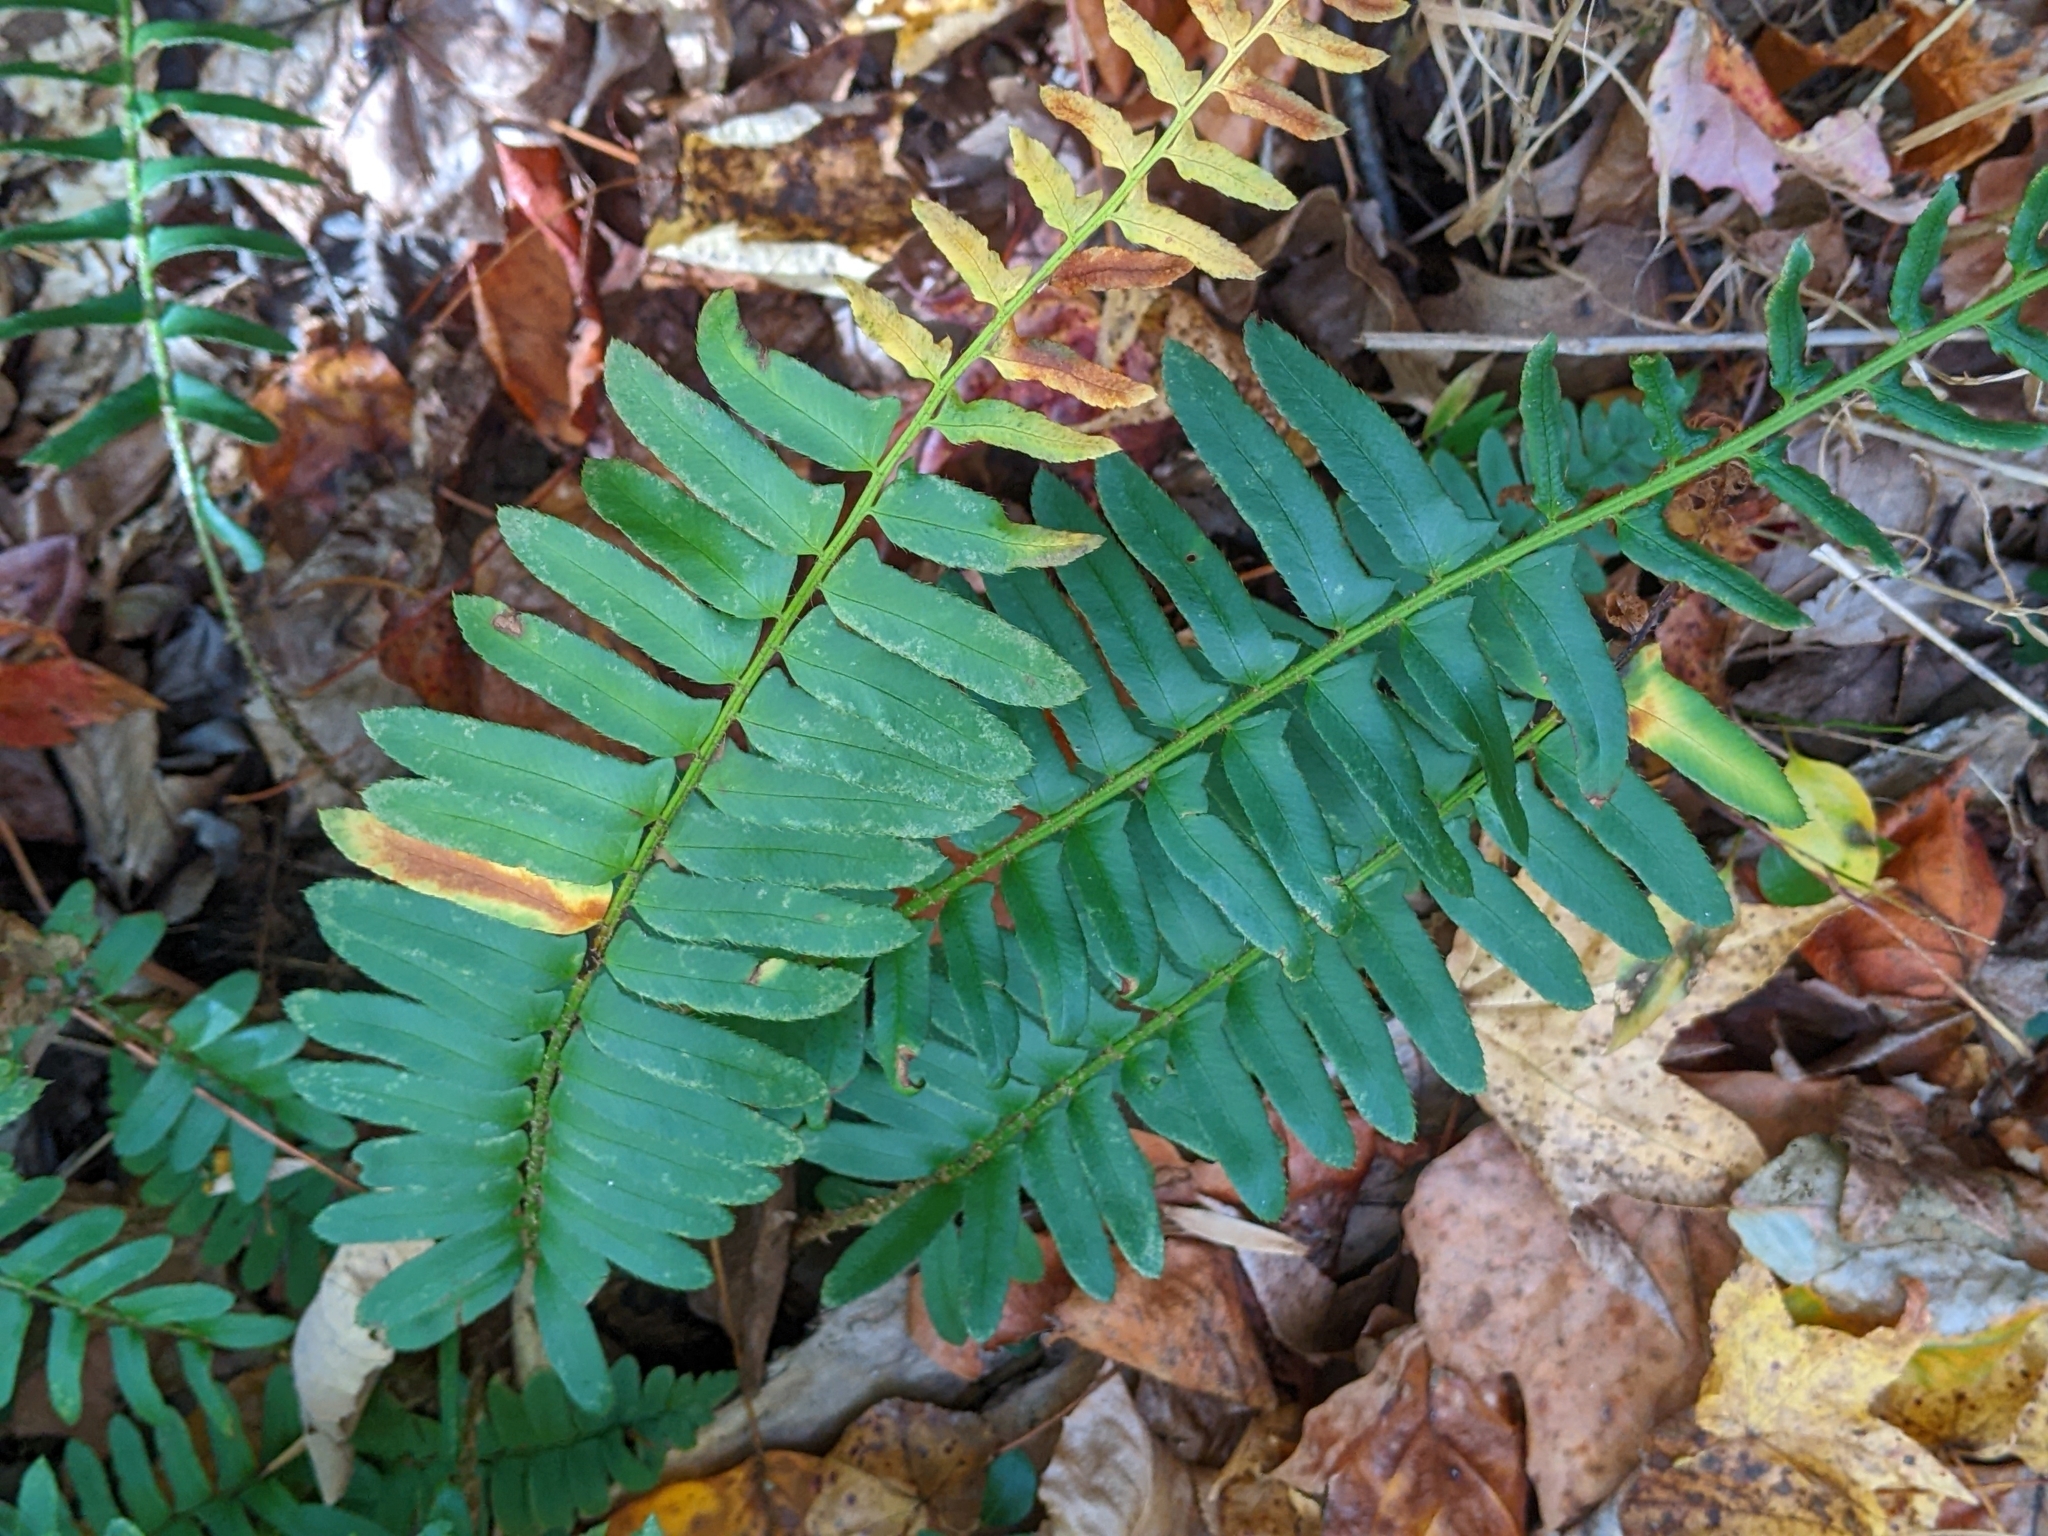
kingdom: Plantae
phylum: Tracheophyta
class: Polypodiopsida
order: Polypodiales
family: Dryopteridaceae
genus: Polystichum
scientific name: Polystichum acrostichoides
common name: Christmas fern
